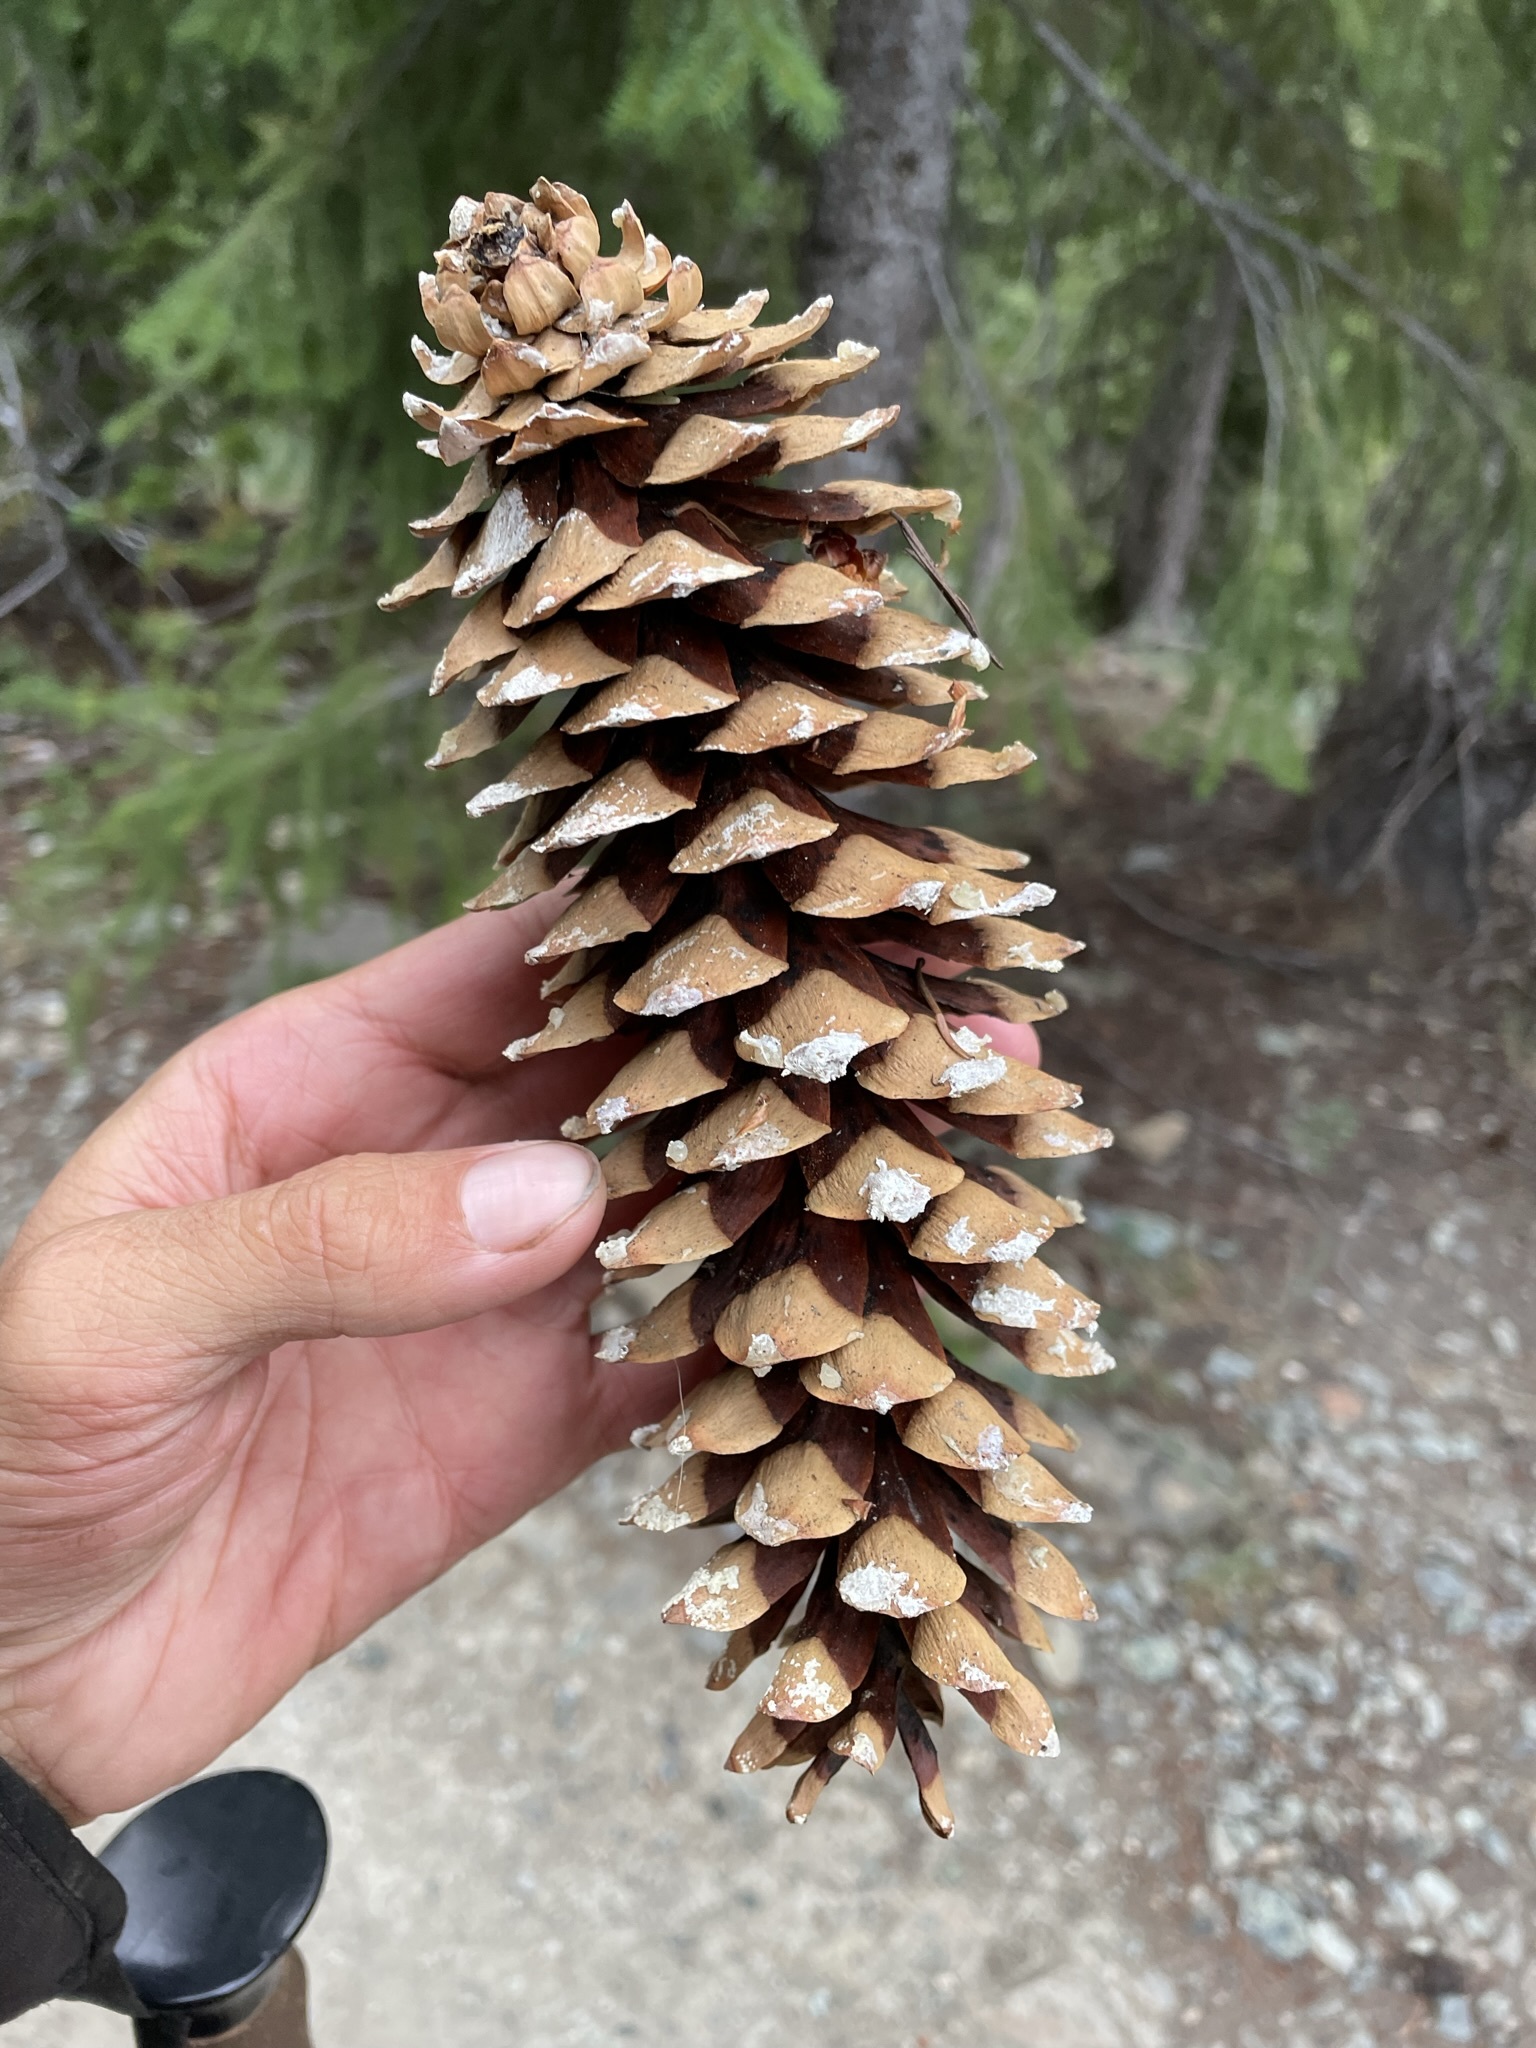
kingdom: Plantae
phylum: Tracheophyta
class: Pinopsida
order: Pinales
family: Pinaceae
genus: Pinus
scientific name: Pinus monticola
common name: Western white pine
